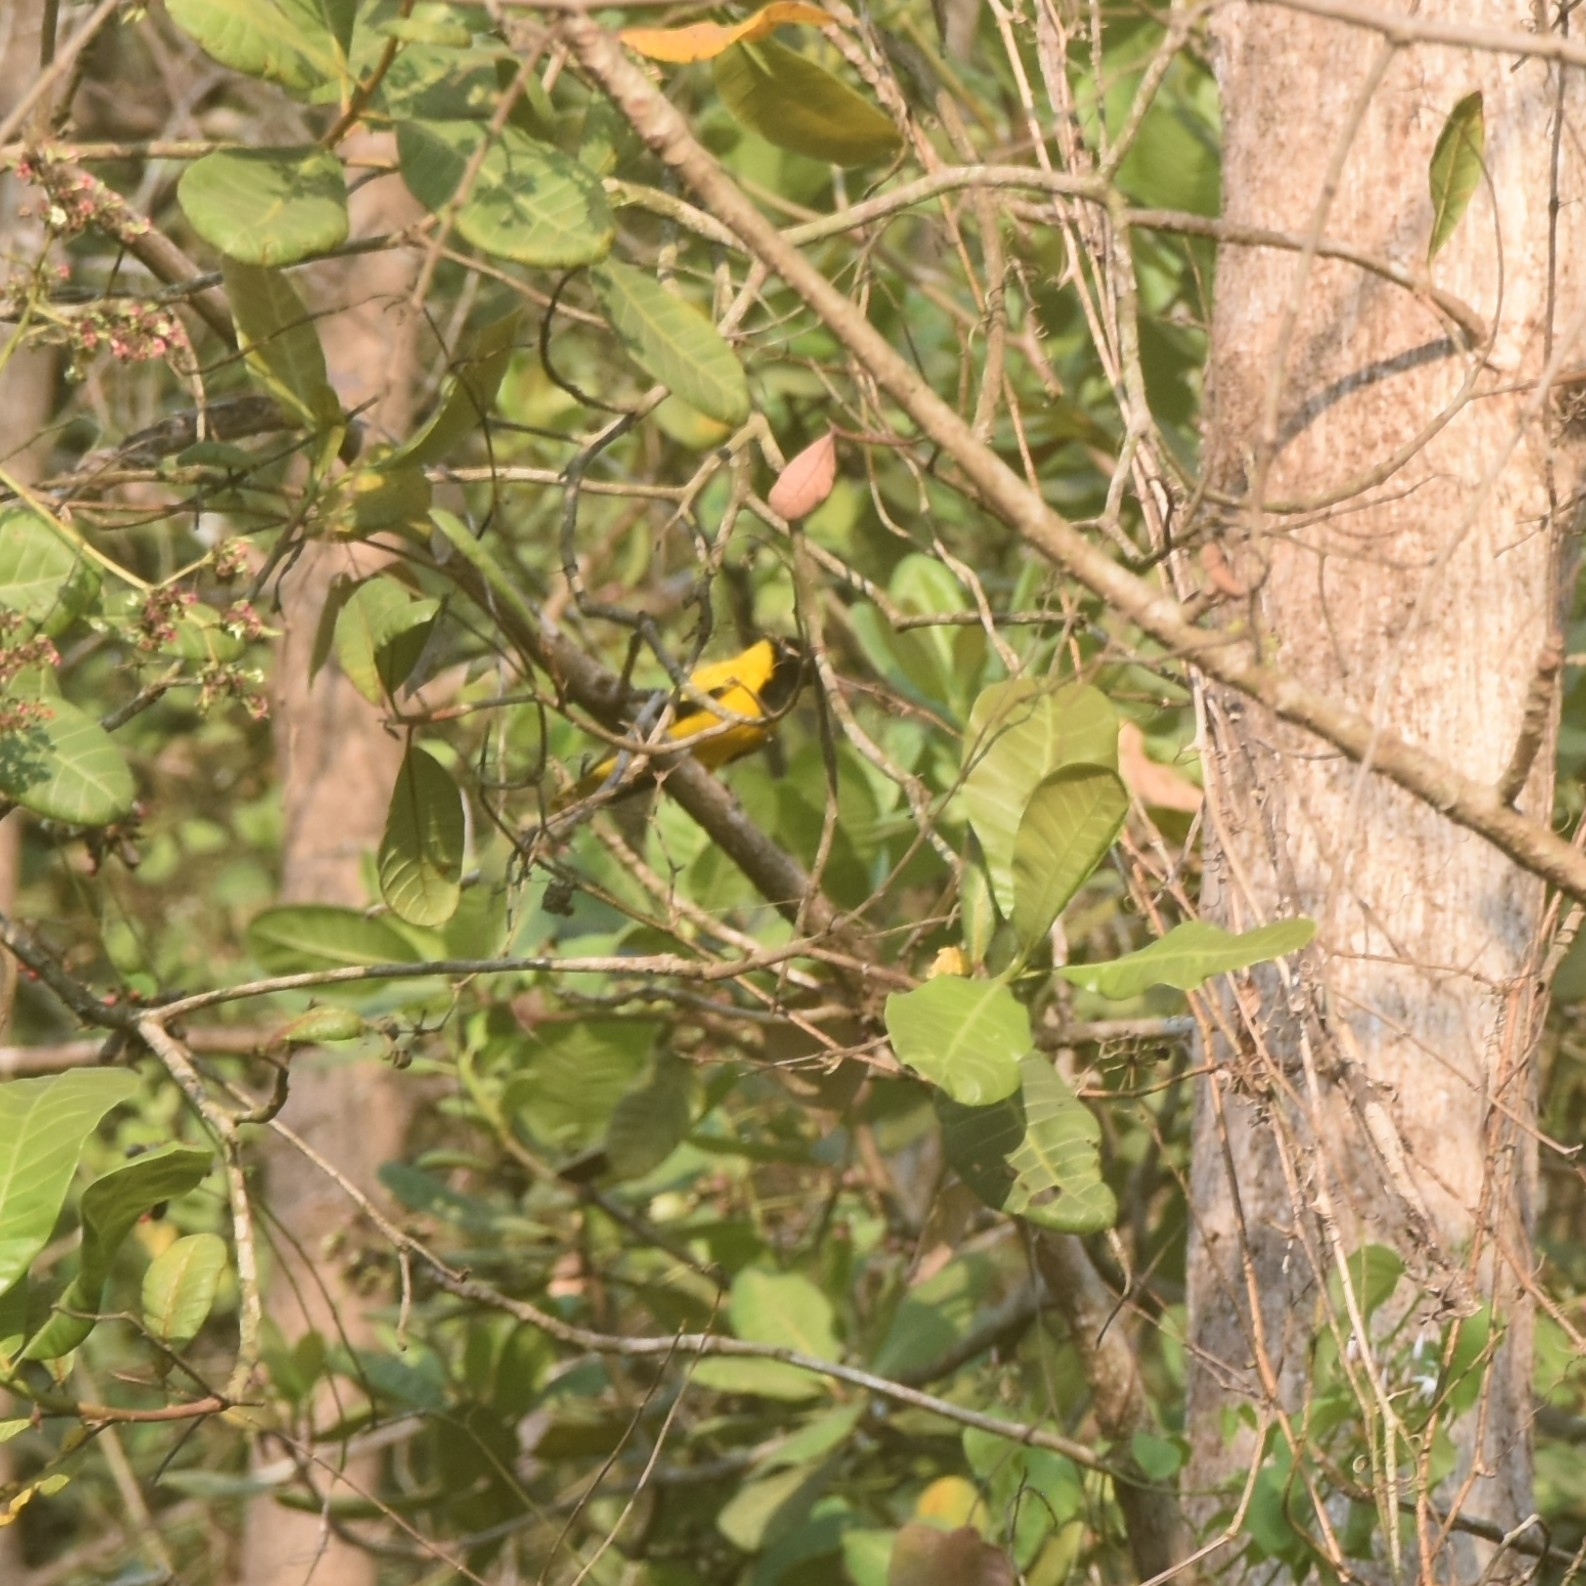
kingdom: Animalia
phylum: Chordata
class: Aves
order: Passeriformes
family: Oriolidae
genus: Oriolus
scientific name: Oriolus xanthornus
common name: Black-hooded oriole
